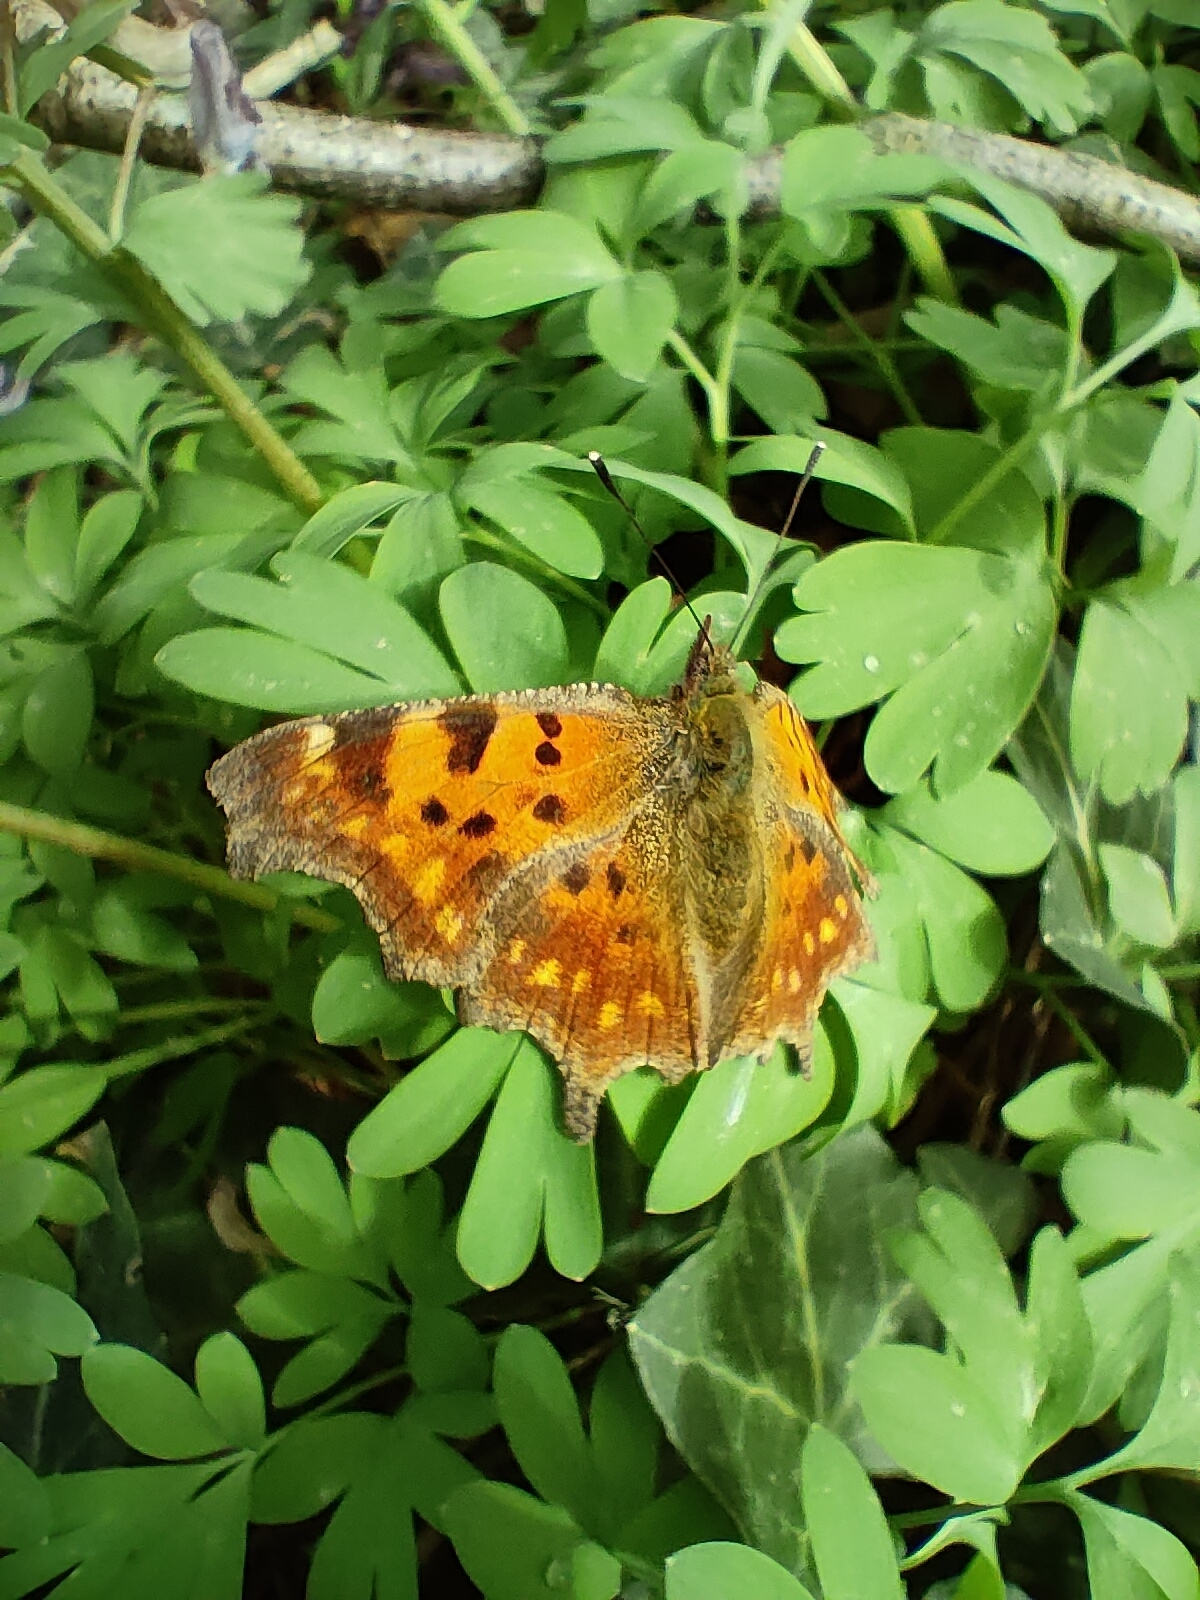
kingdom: Animalia
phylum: Arthropoda
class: Insecta
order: Lepidoptera
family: Nymphalidae
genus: Polygonia
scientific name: Polygonia c-album
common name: Comma
